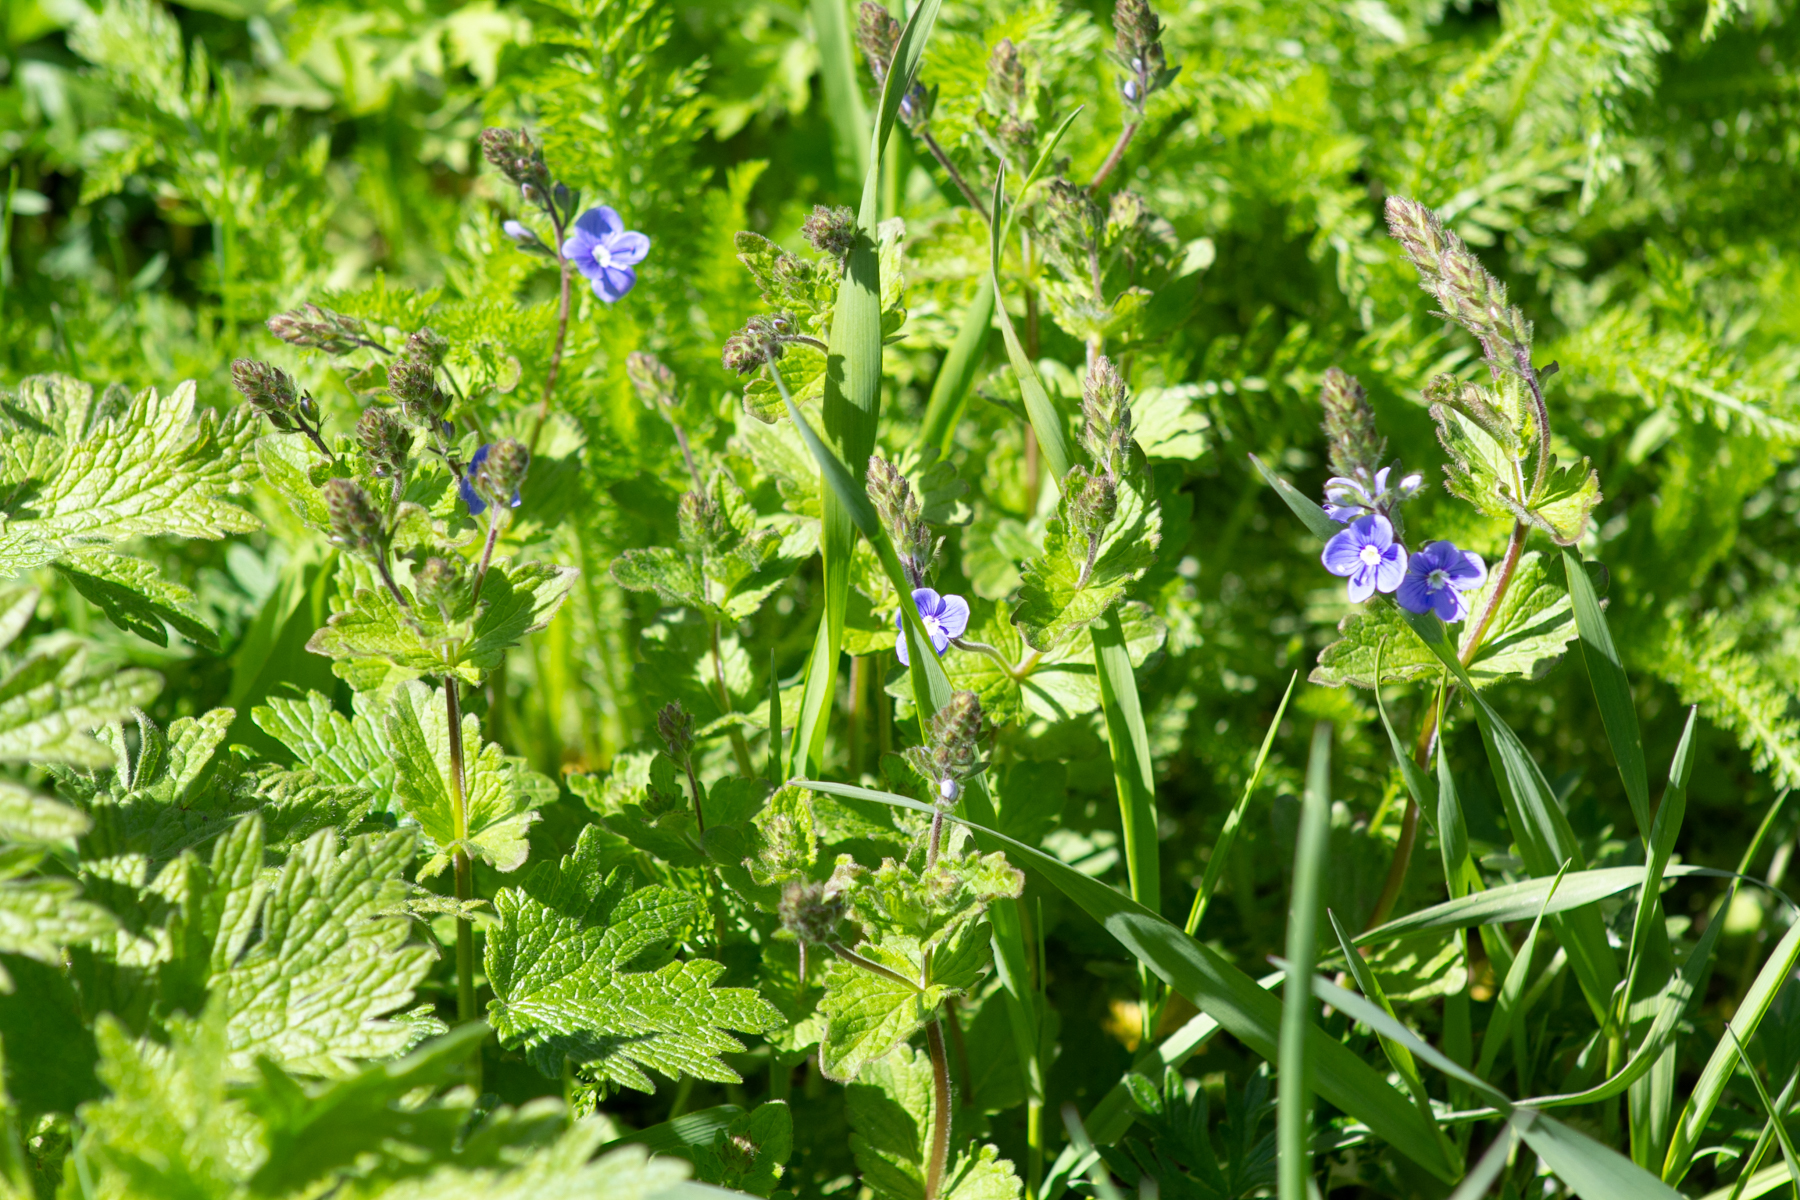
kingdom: Plantae
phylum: Tracheophyta
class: Magnoliopsida
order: Lamiales
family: Plantaginaceae
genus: Veronica
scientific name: Veronica chamaedrys
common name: Germander speedwell
